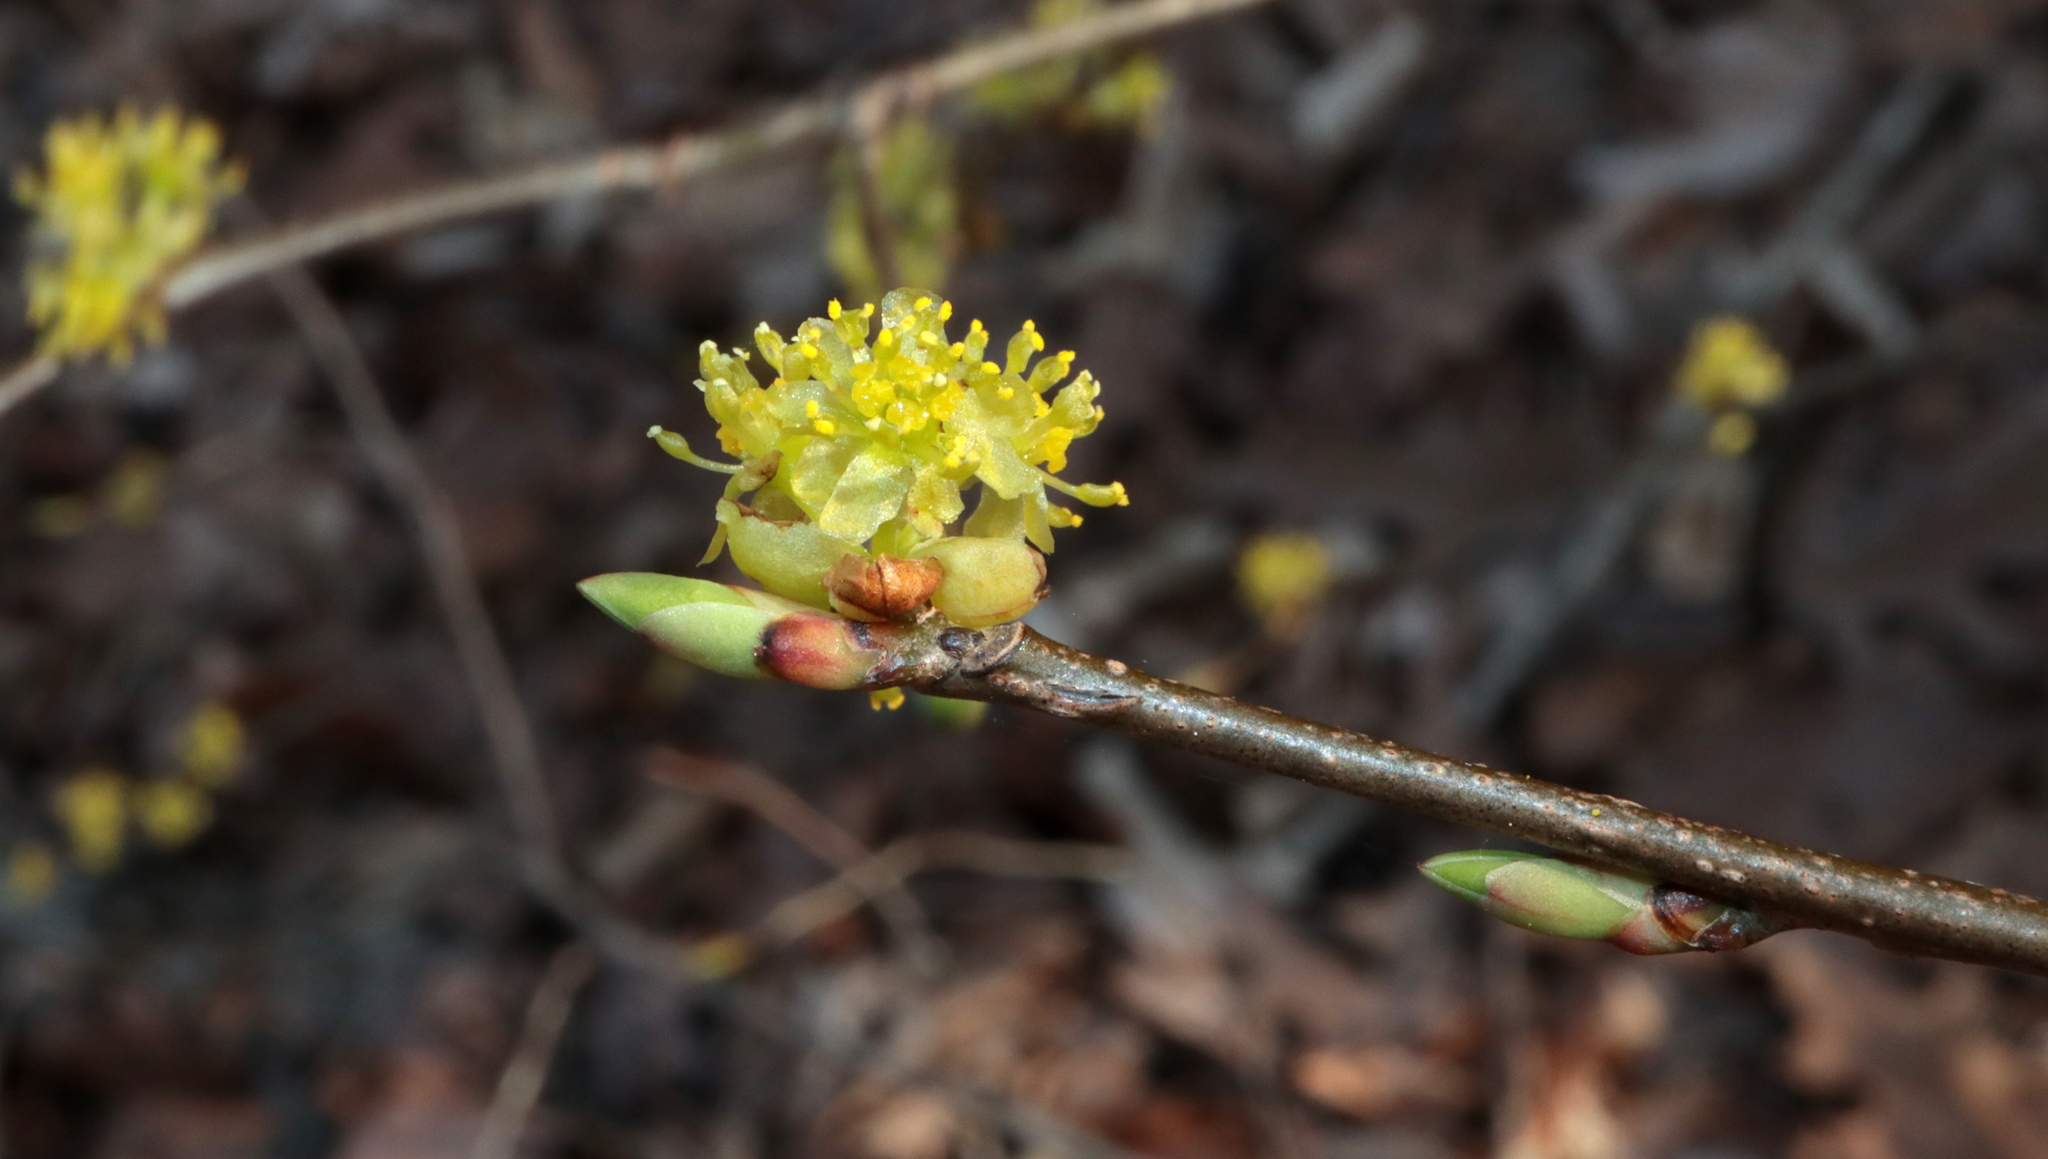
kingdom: Plantae
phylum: Tracheophyta
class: Magnoliopsida
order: Laurales
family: Lauraceae
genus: Lindera
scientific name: Lindera benzoin
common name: Spicebush
